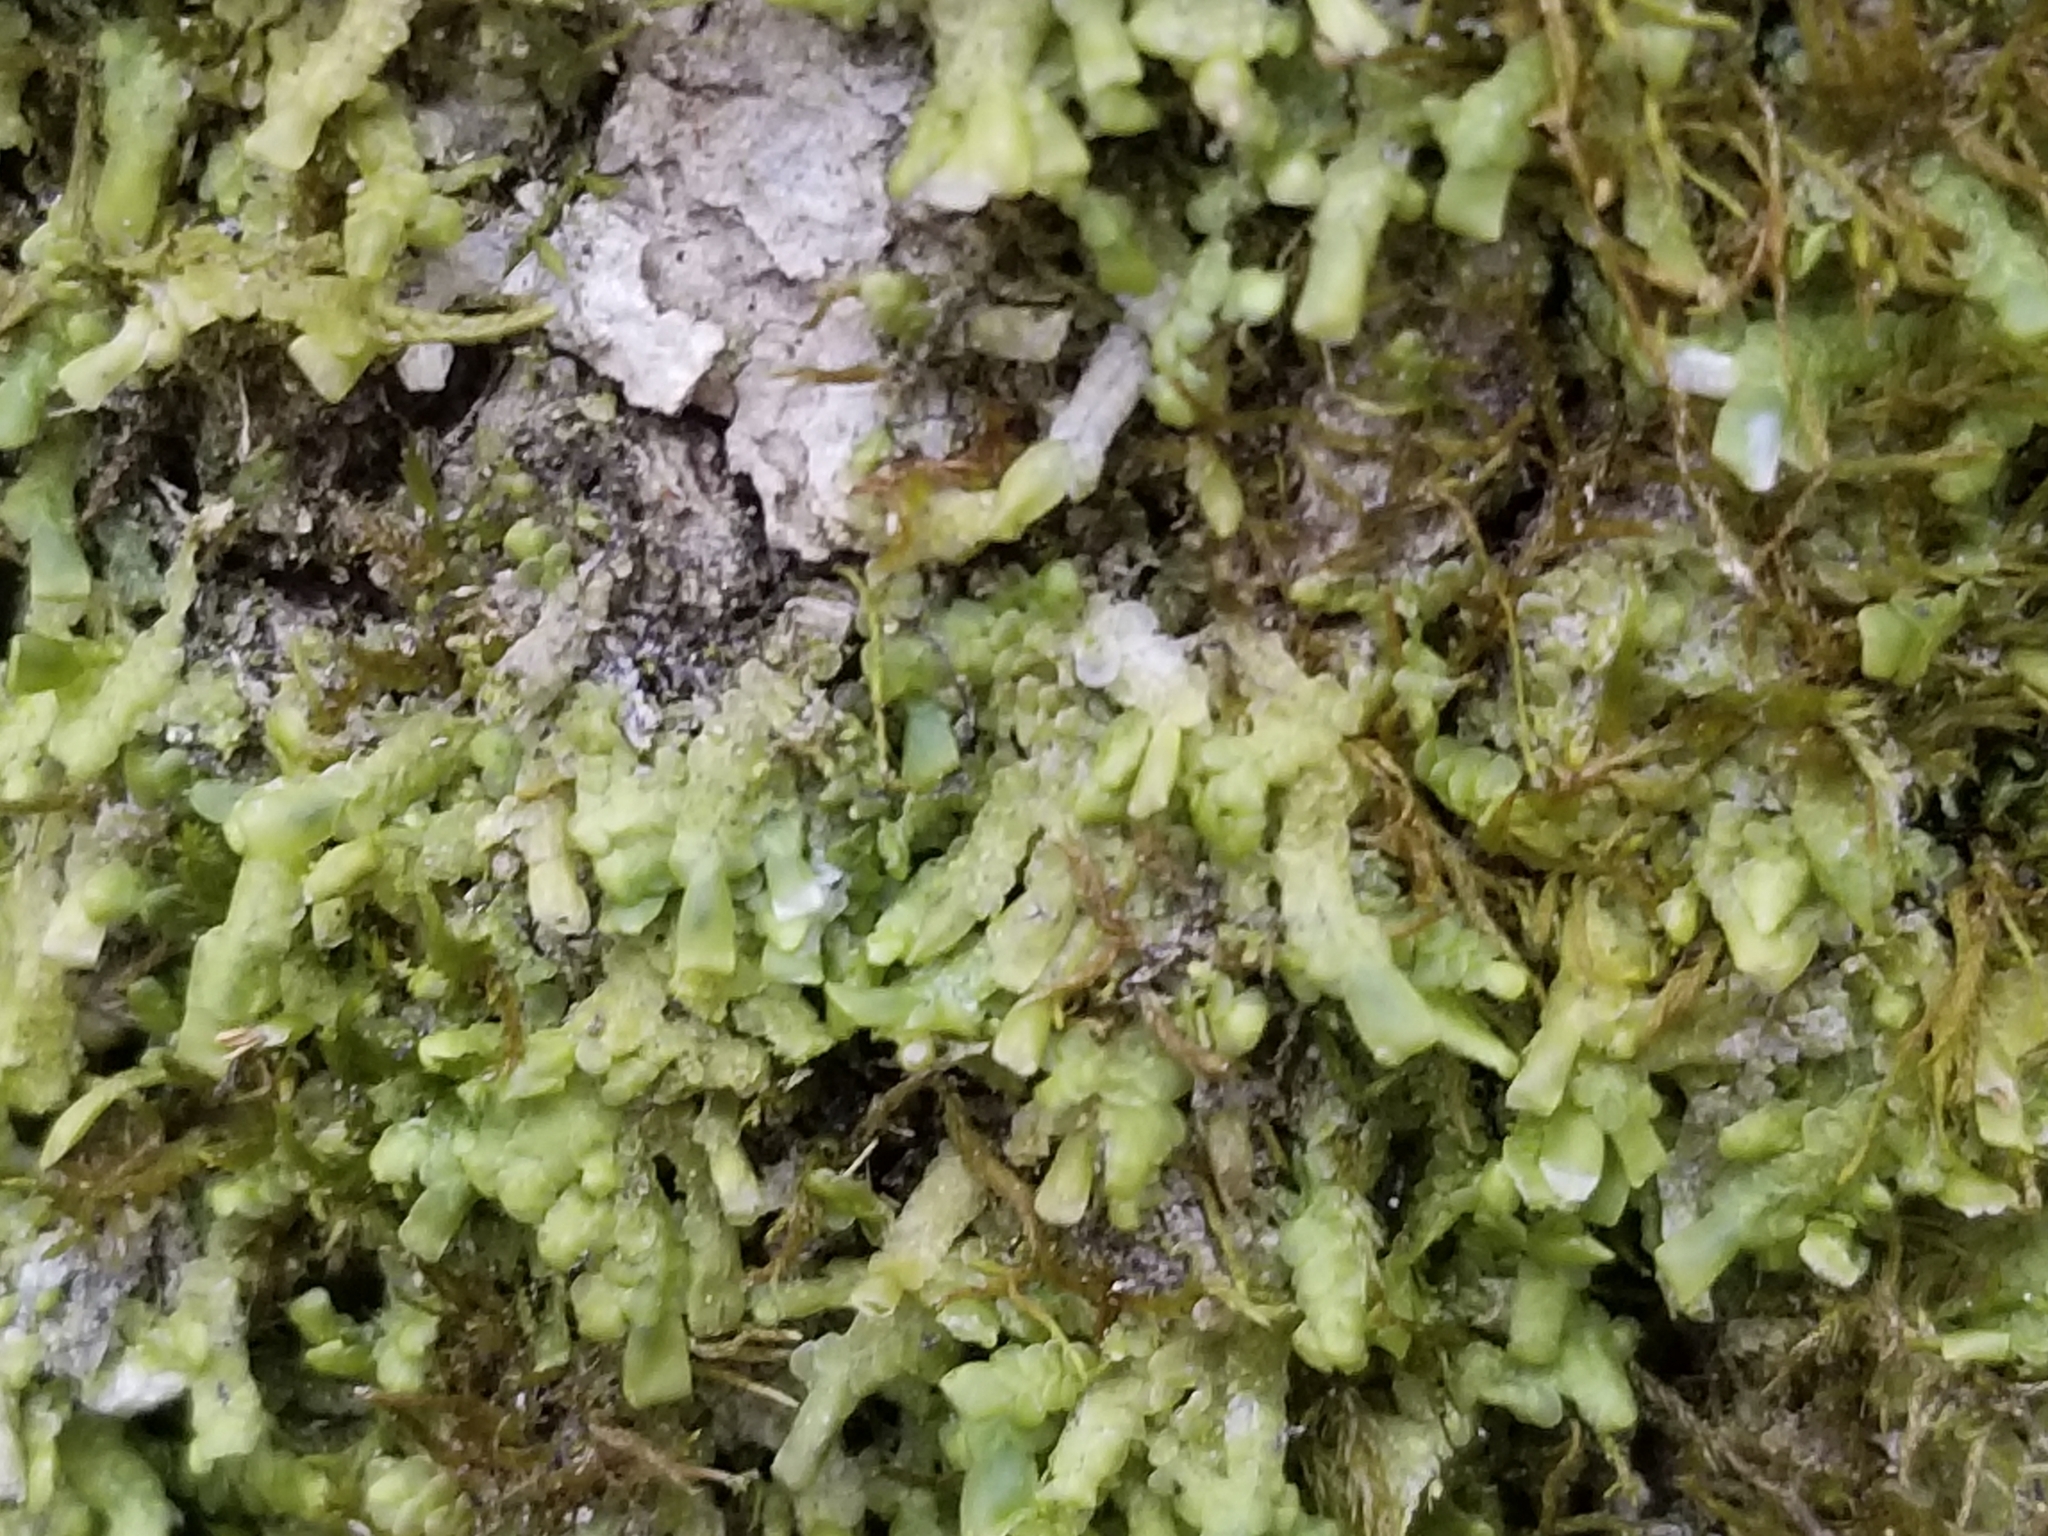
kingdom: Plantae
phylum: Marchantiophyta
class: Jungermanniopsida
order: Porellales
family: Radulaceae
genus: Radula
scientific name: Radula complanata
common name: Flat-leaved scalewort
